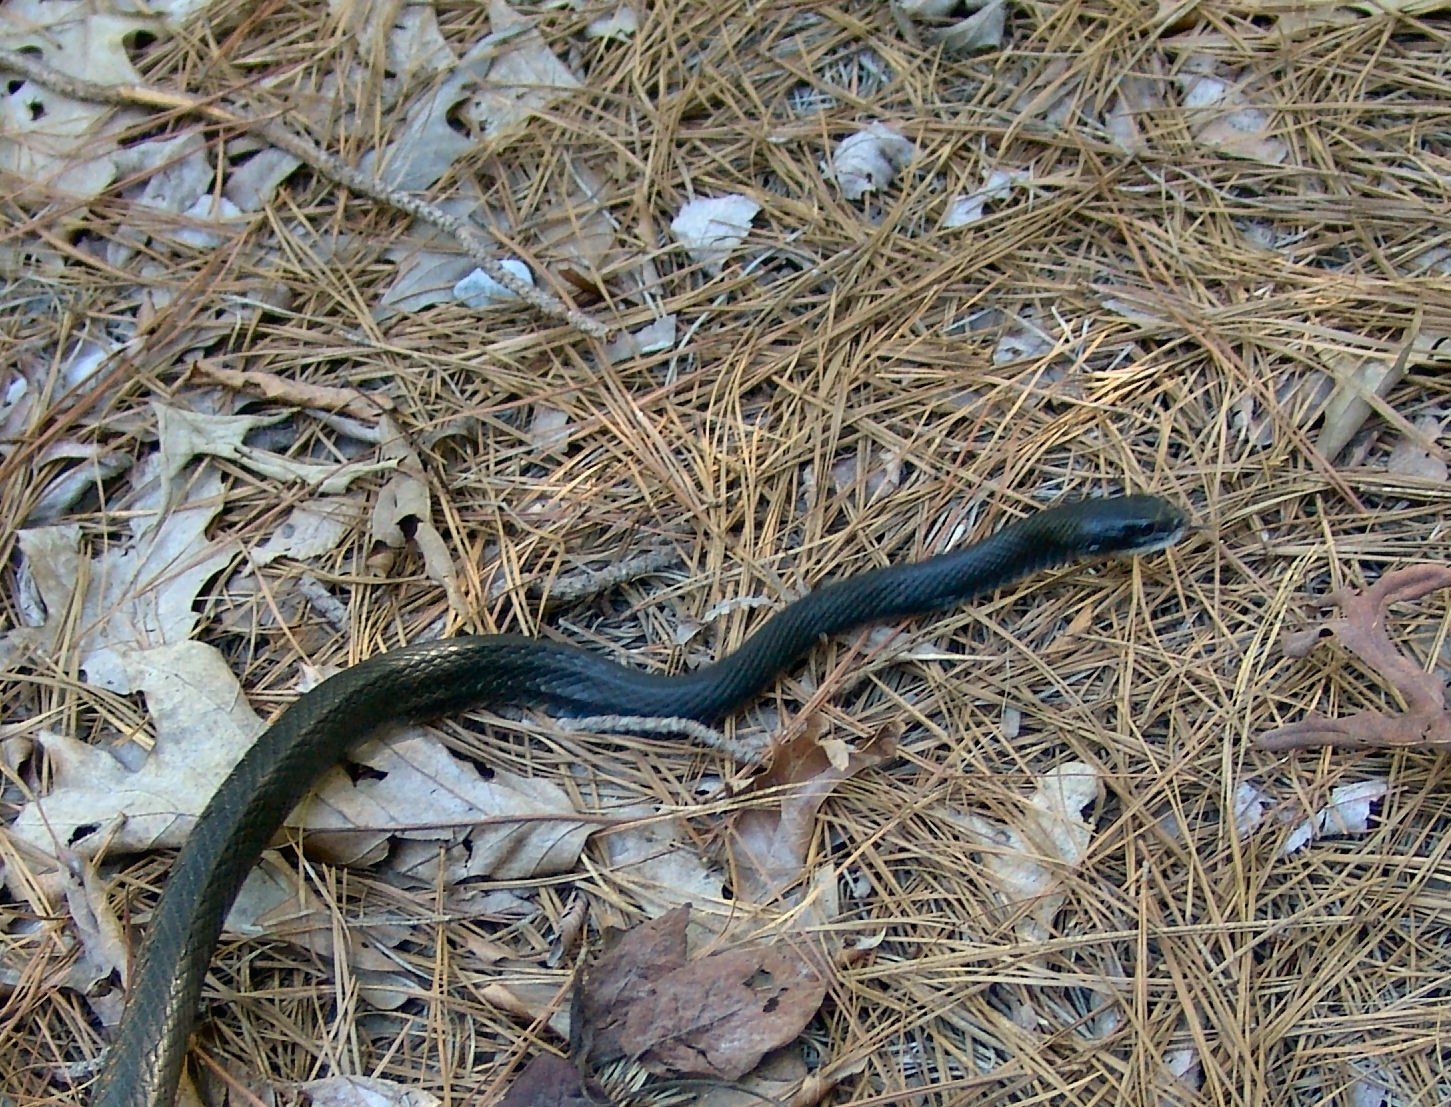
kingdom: Animalia
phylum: Chordata
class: Squamata
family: Colubridae
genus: Coluber
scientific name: Coluber constrictor
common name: Eastern racer
